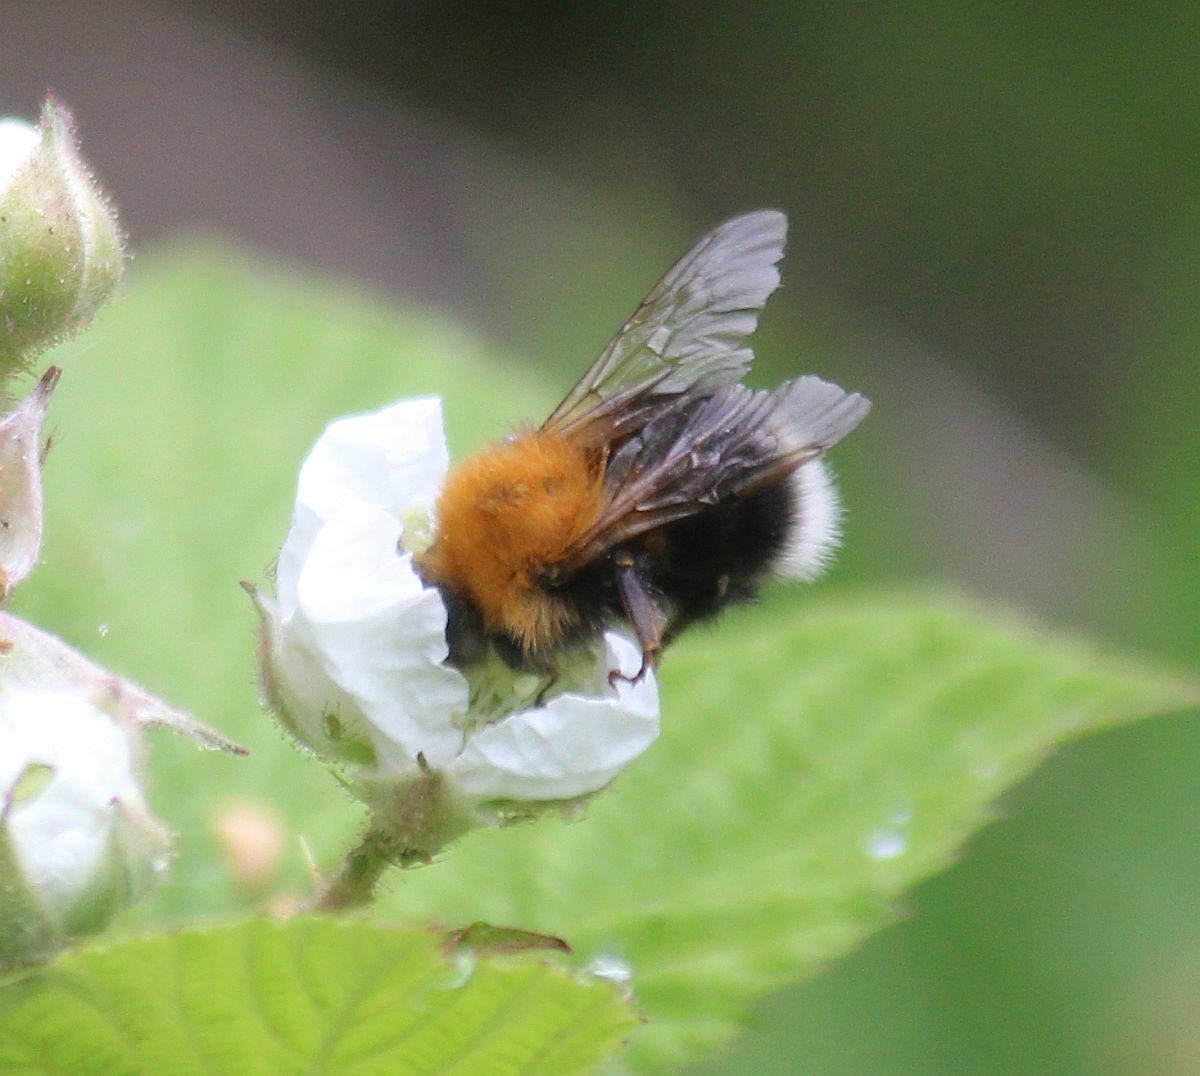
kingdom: Animalia
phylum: Arthropoda
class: Insecta
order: Hymenoptera
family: Apidae
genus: Bombus
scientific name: Bombus hypnorum
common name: New garden bumblebee
